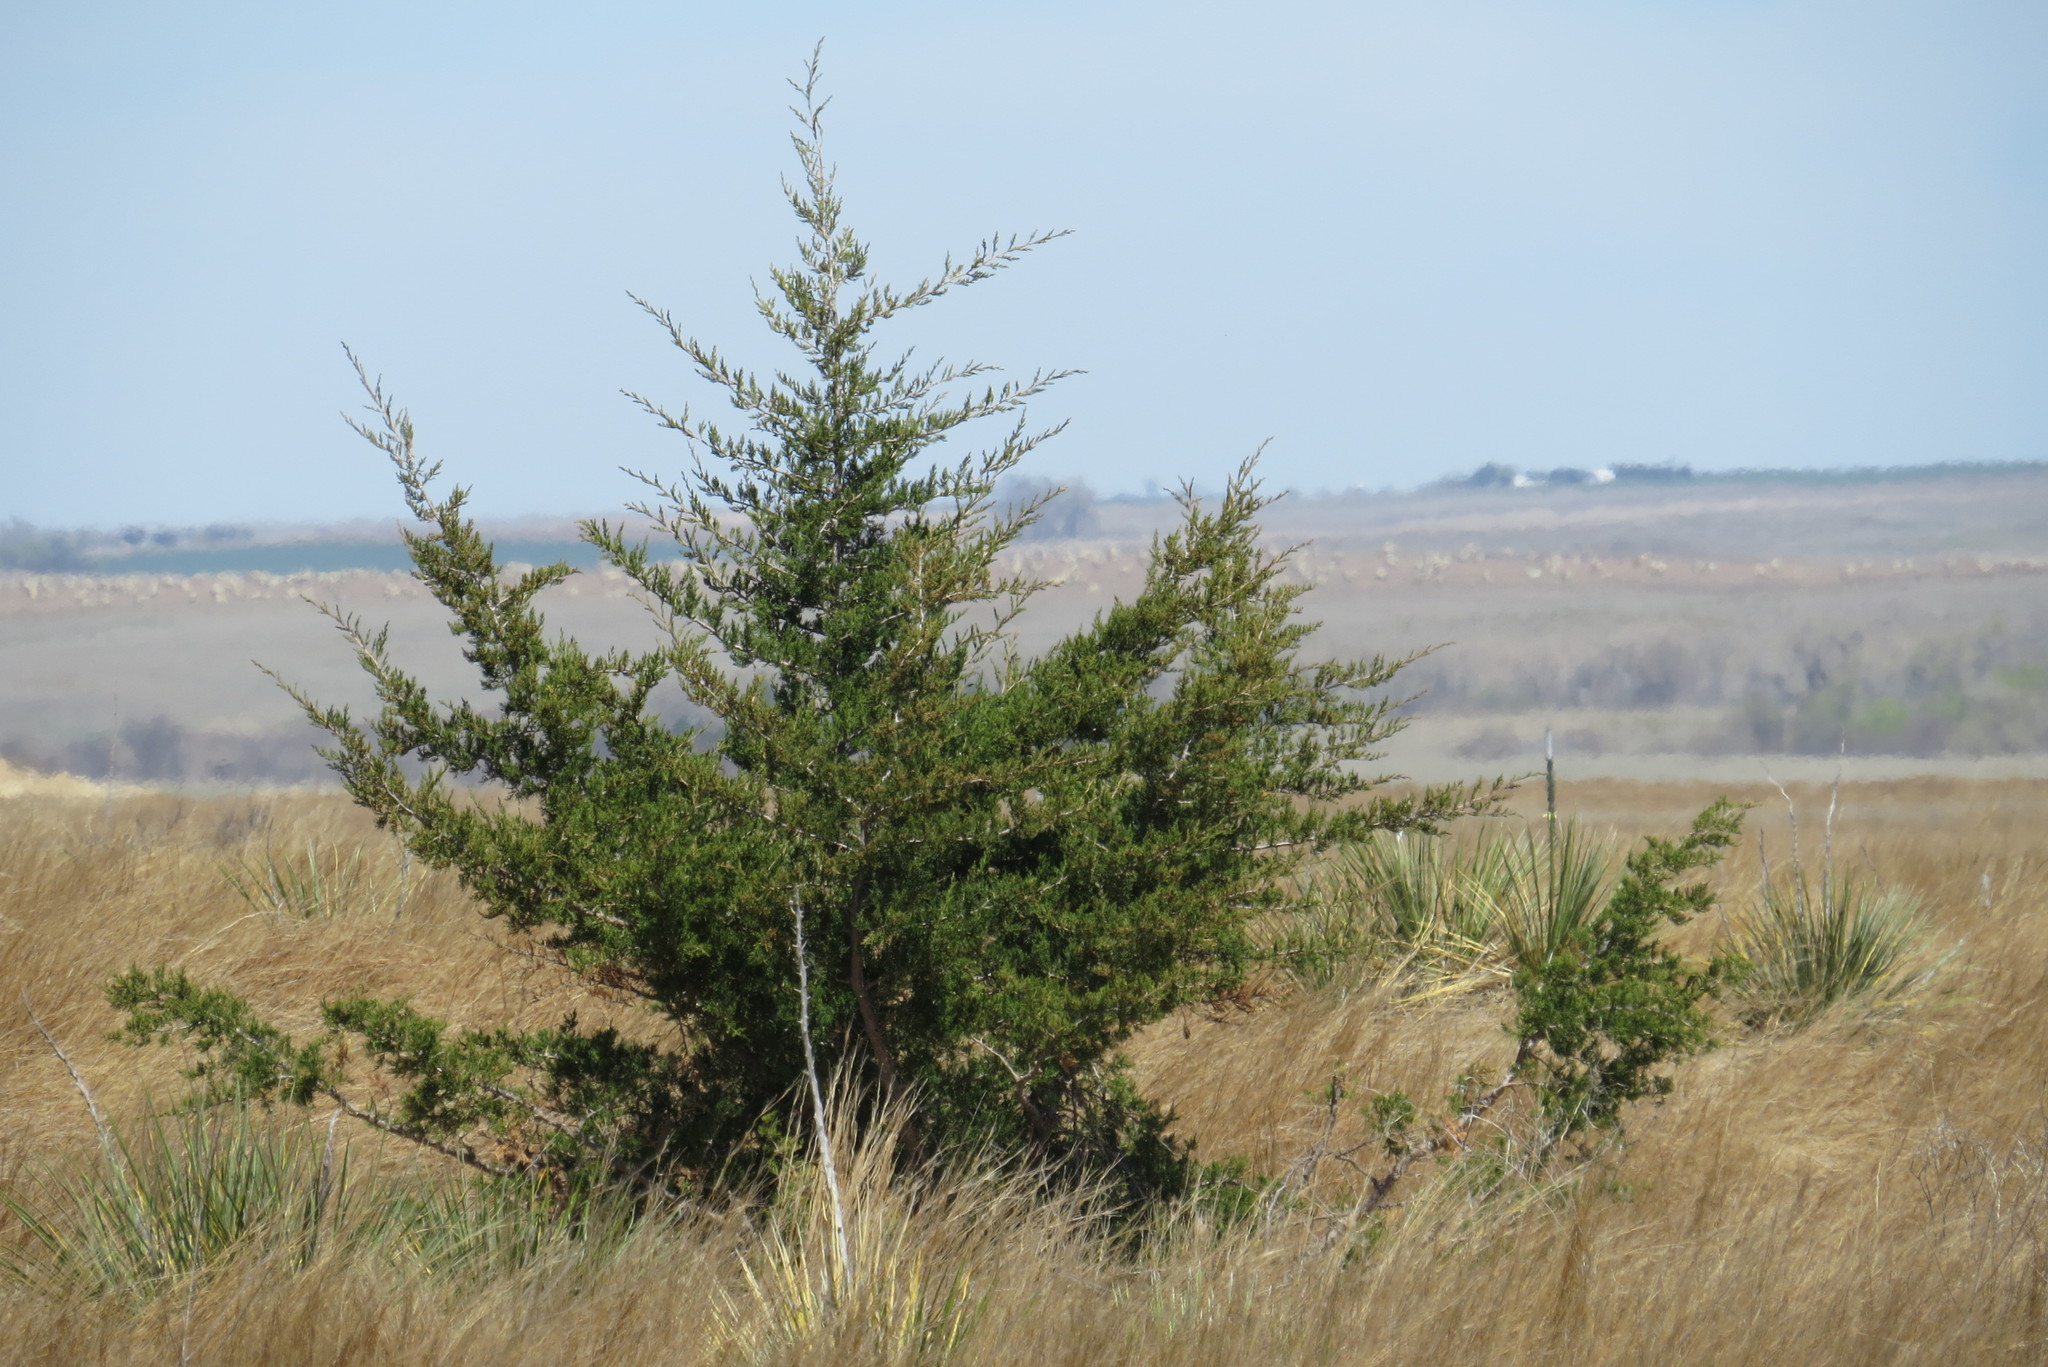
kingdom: Plantae
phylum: Tracheophyta
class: Pinopsida
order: Pinales
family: Cupressaceae
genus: Juniperus
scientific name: Juniperus virginiana
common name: Red juniper
